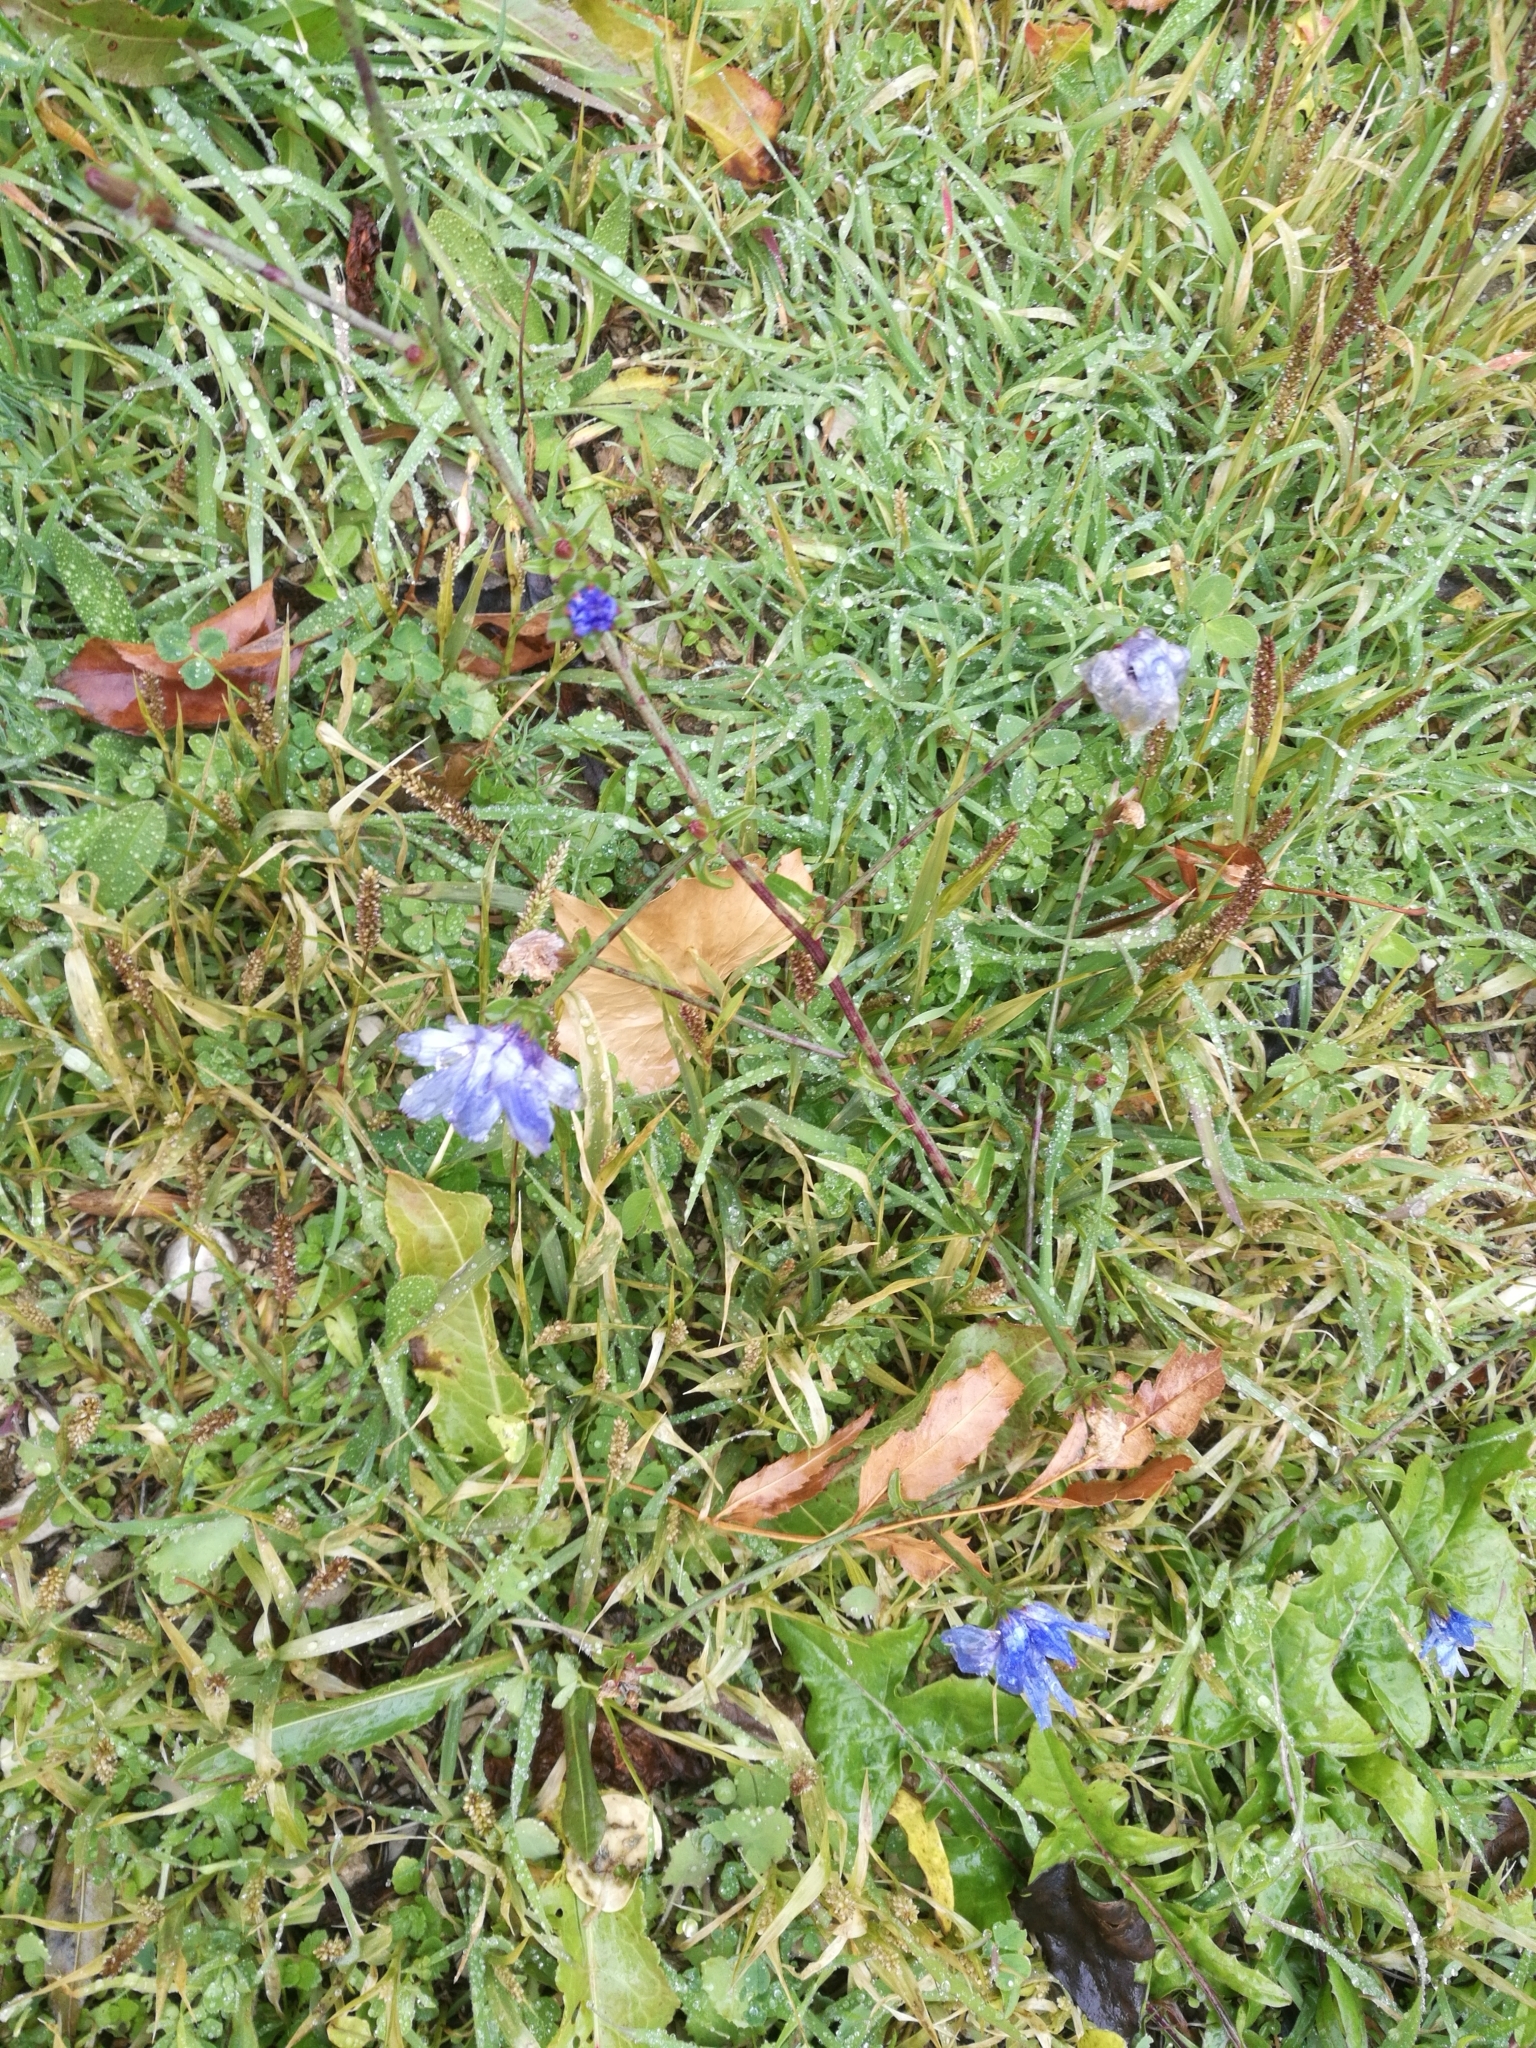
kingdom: Plantae
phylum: Tracheophyta
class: Magnoliopsida
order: Asterales
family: Asteraceae
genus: Cichorium
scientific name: Cichorium intybus
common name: Chicory
